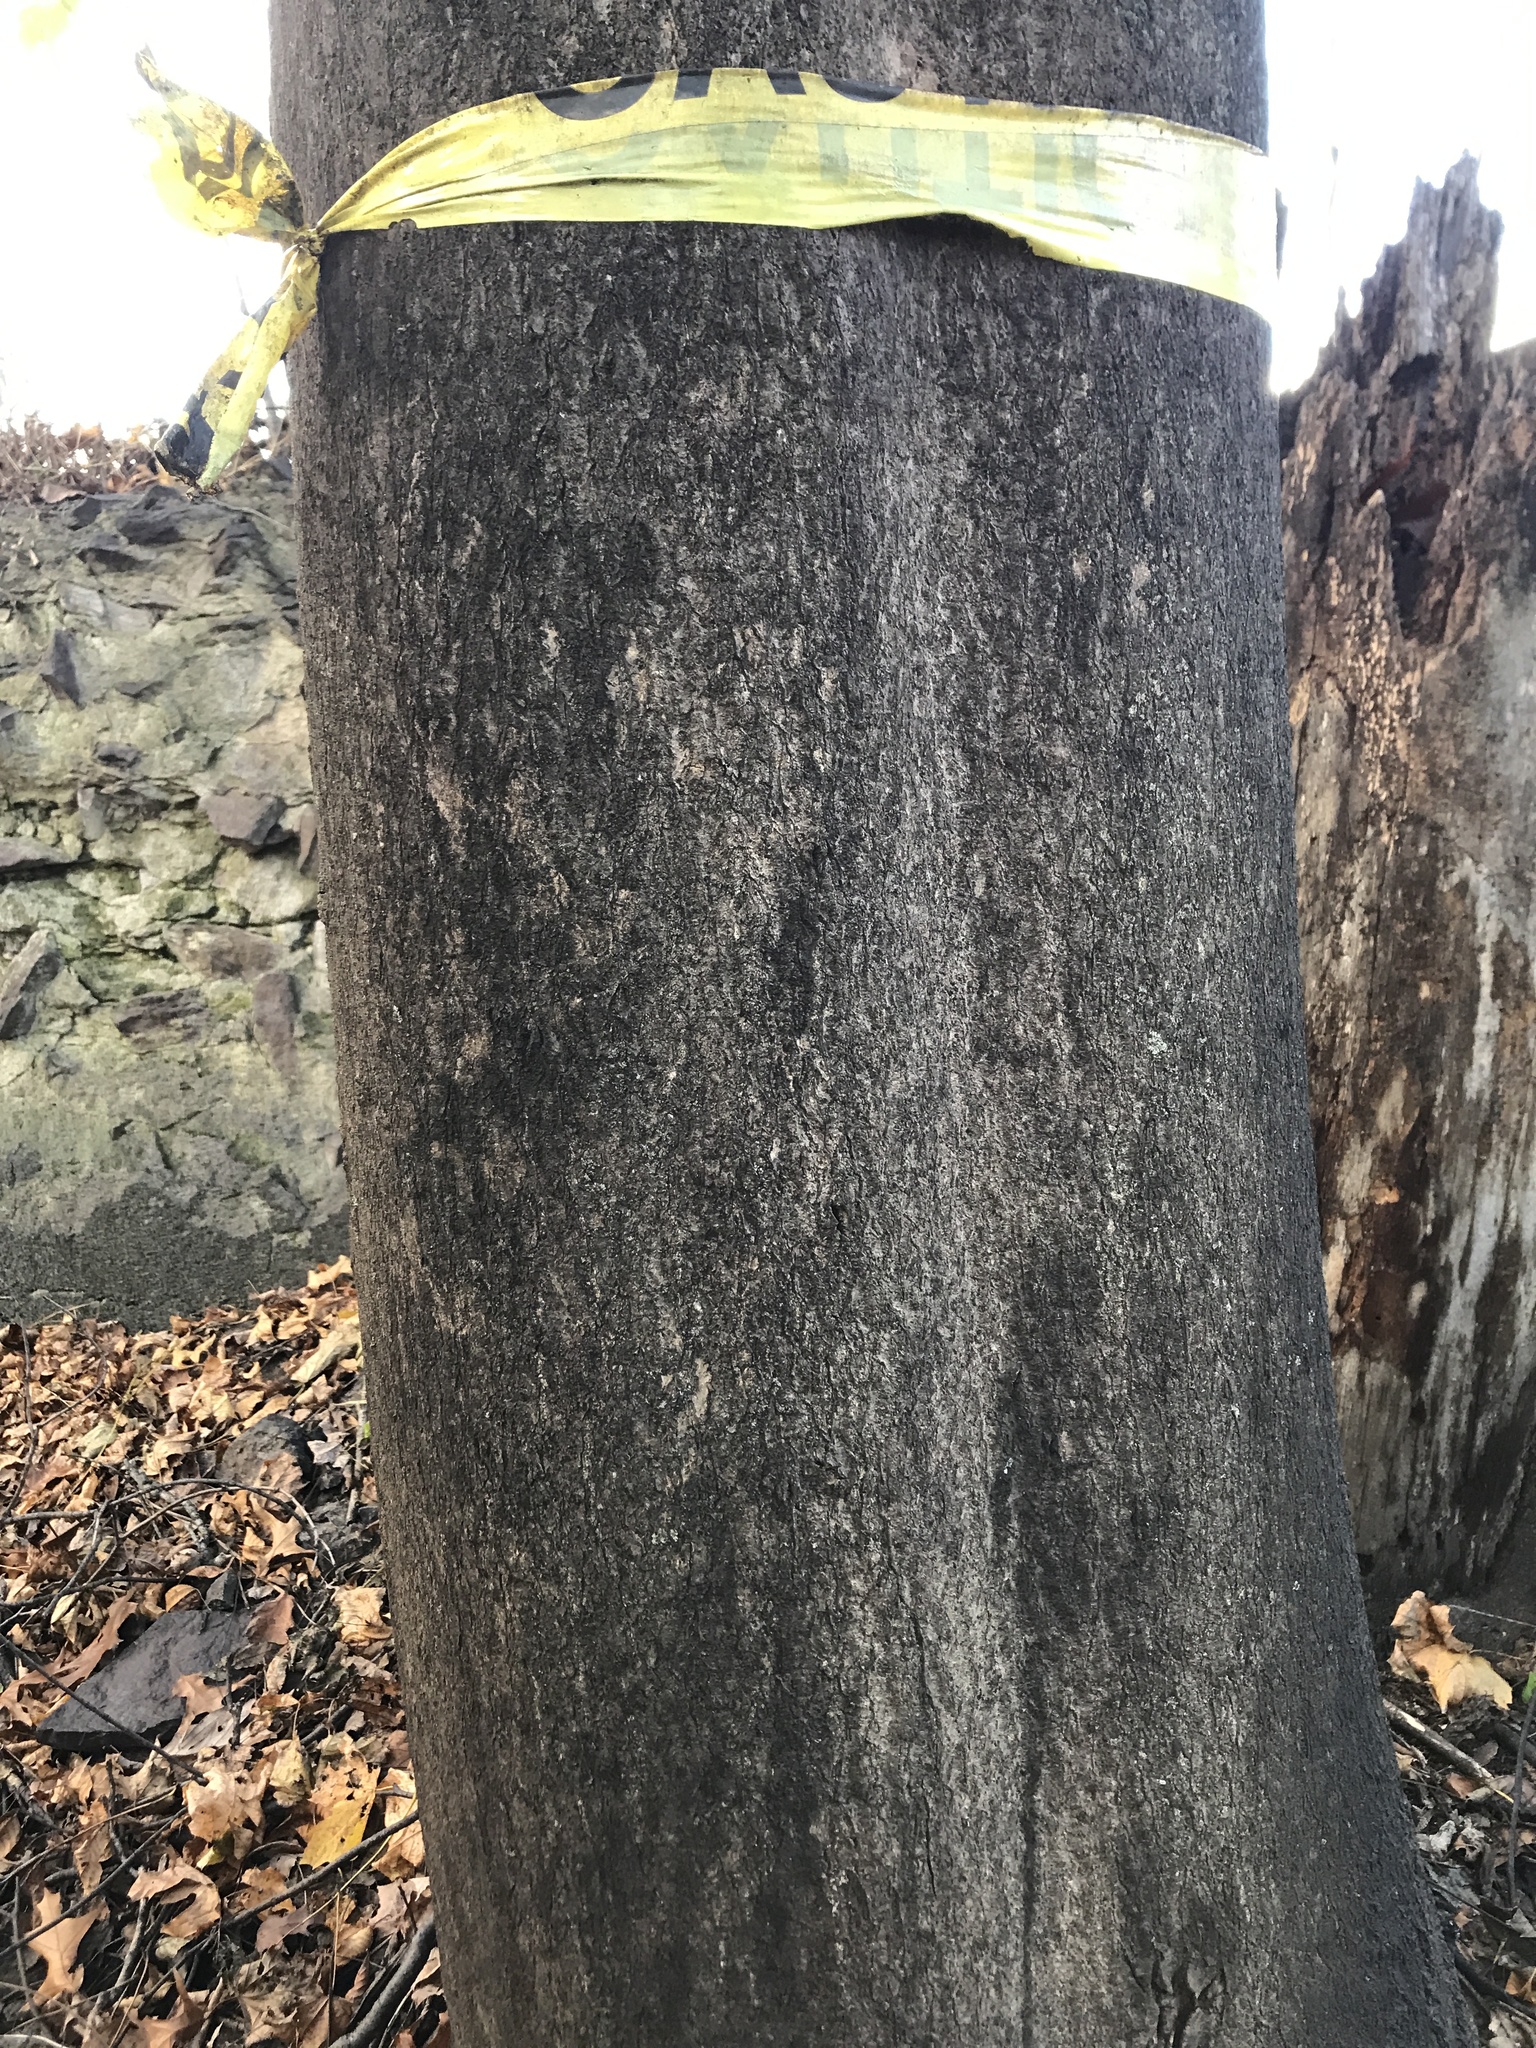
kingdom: Plantae
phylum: Tracheophyta
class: Magnoliopsida
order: Sapindales
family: Simaroubaceae
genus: Ailanthus
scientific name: Ailanthus altissima
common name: Tree-of-heaven
